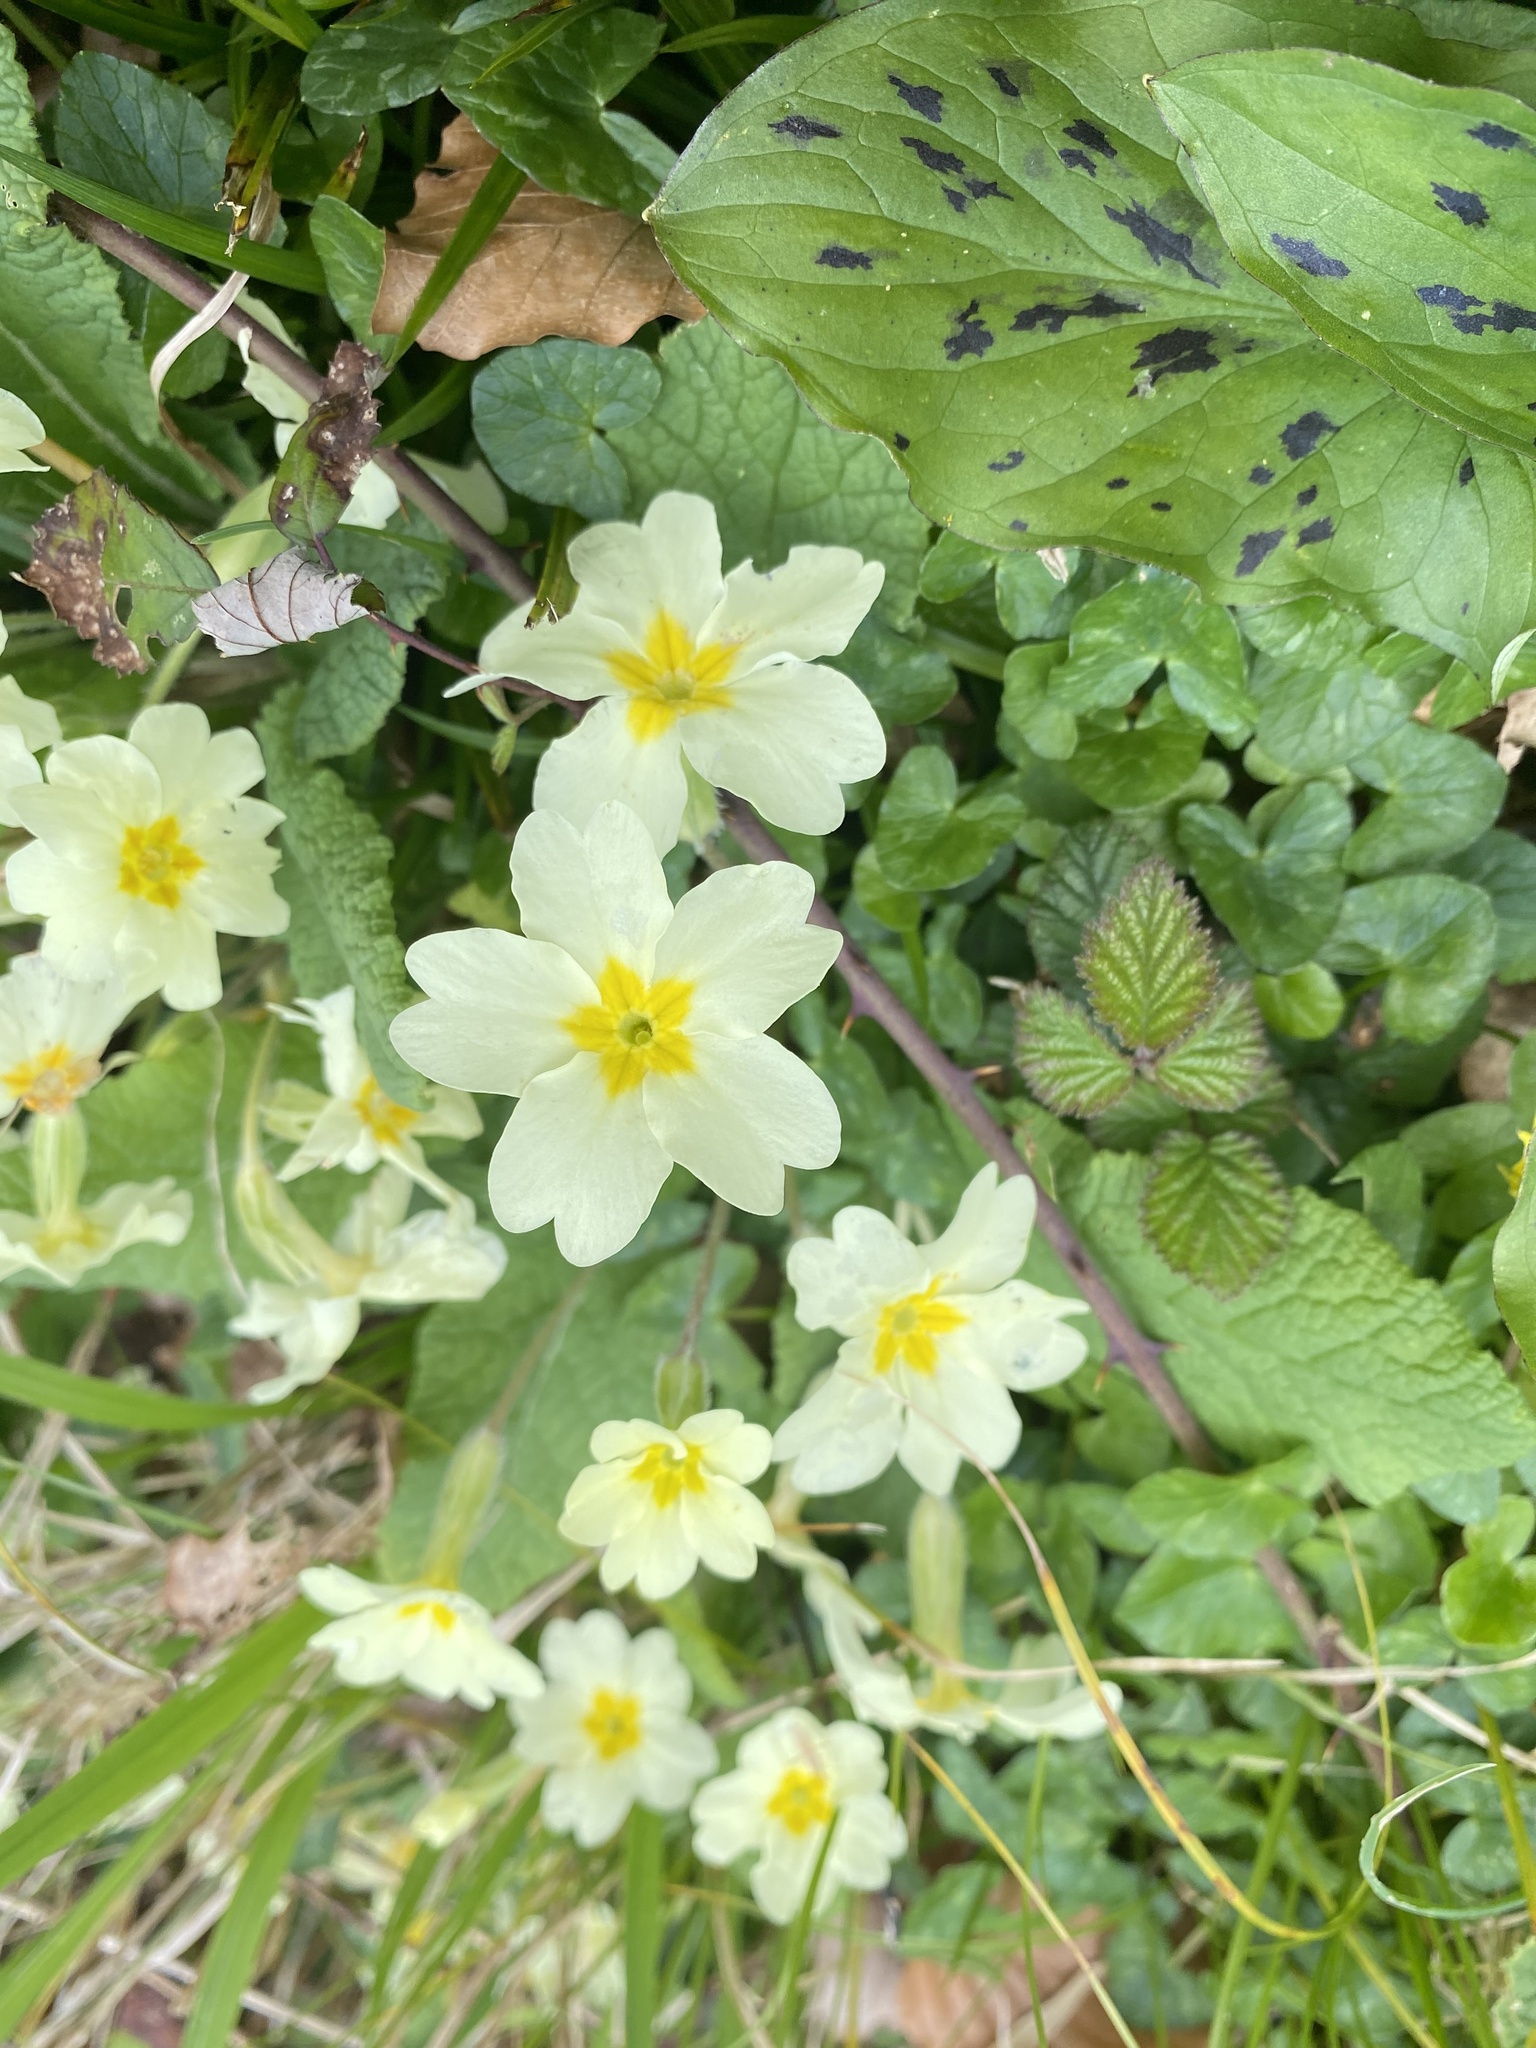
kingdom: Plantae
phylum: Tracheophyta
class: Magnoliopsida
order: Ericales
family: Primulaceae
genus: Primula
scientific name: Primula vulgaris
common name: Primrose
